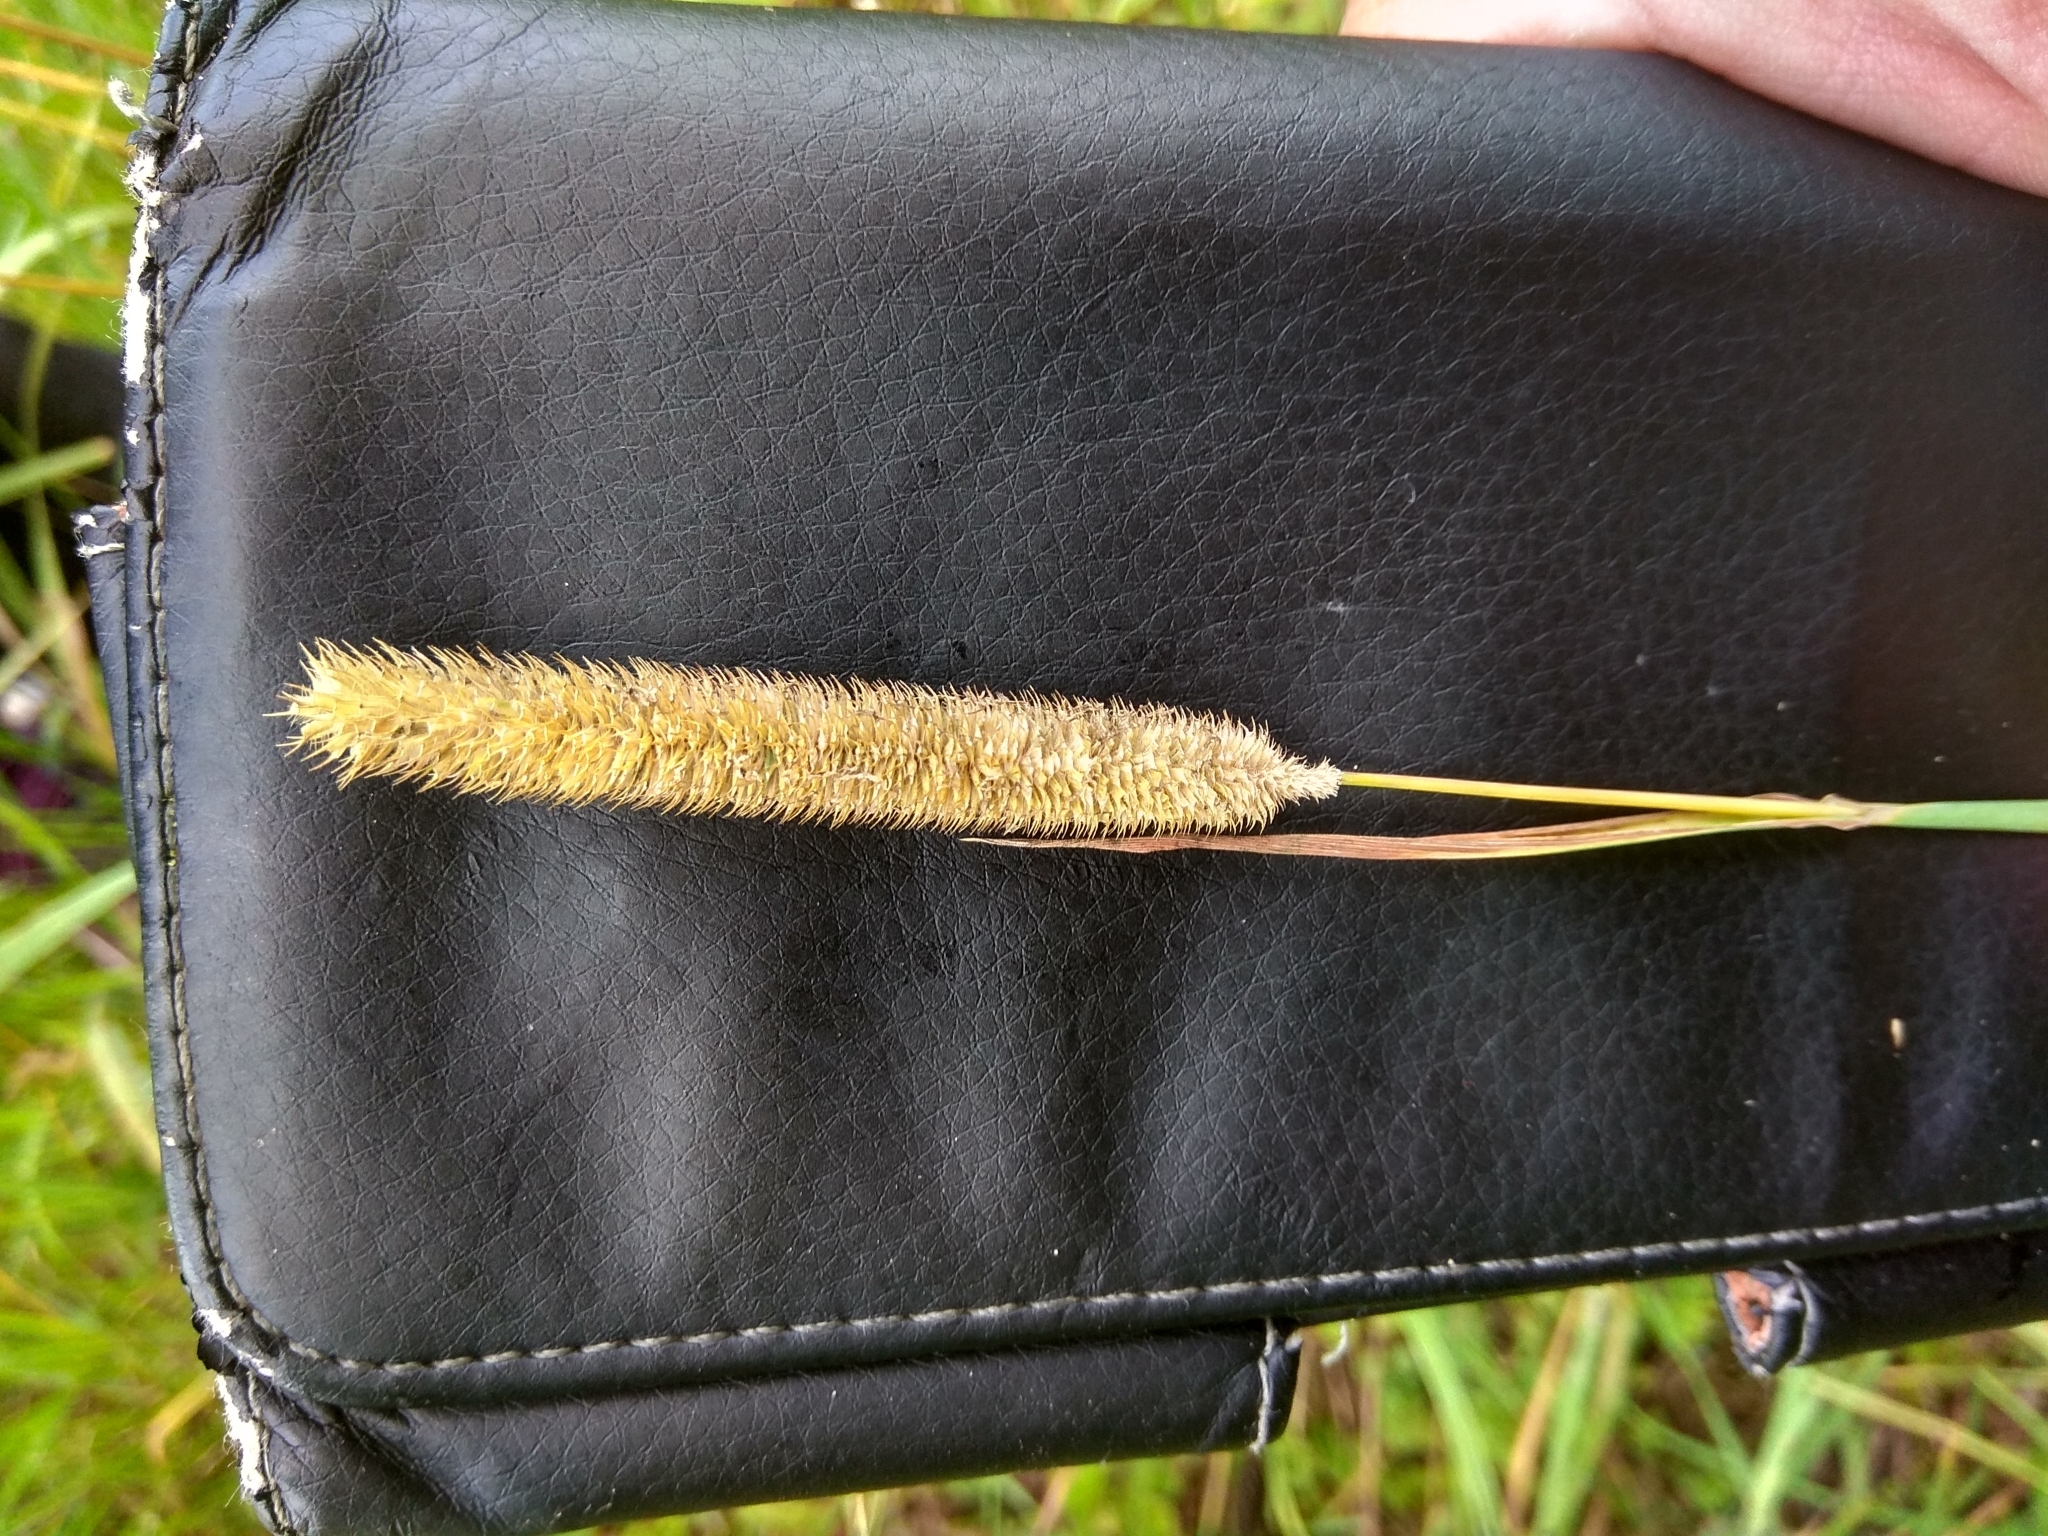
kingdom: Plantae
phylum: Tracheophyta
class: Liliopsida
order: Poales
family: Poaceae
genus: Phleum
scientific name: Phleum pratense
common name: Timothy grass
